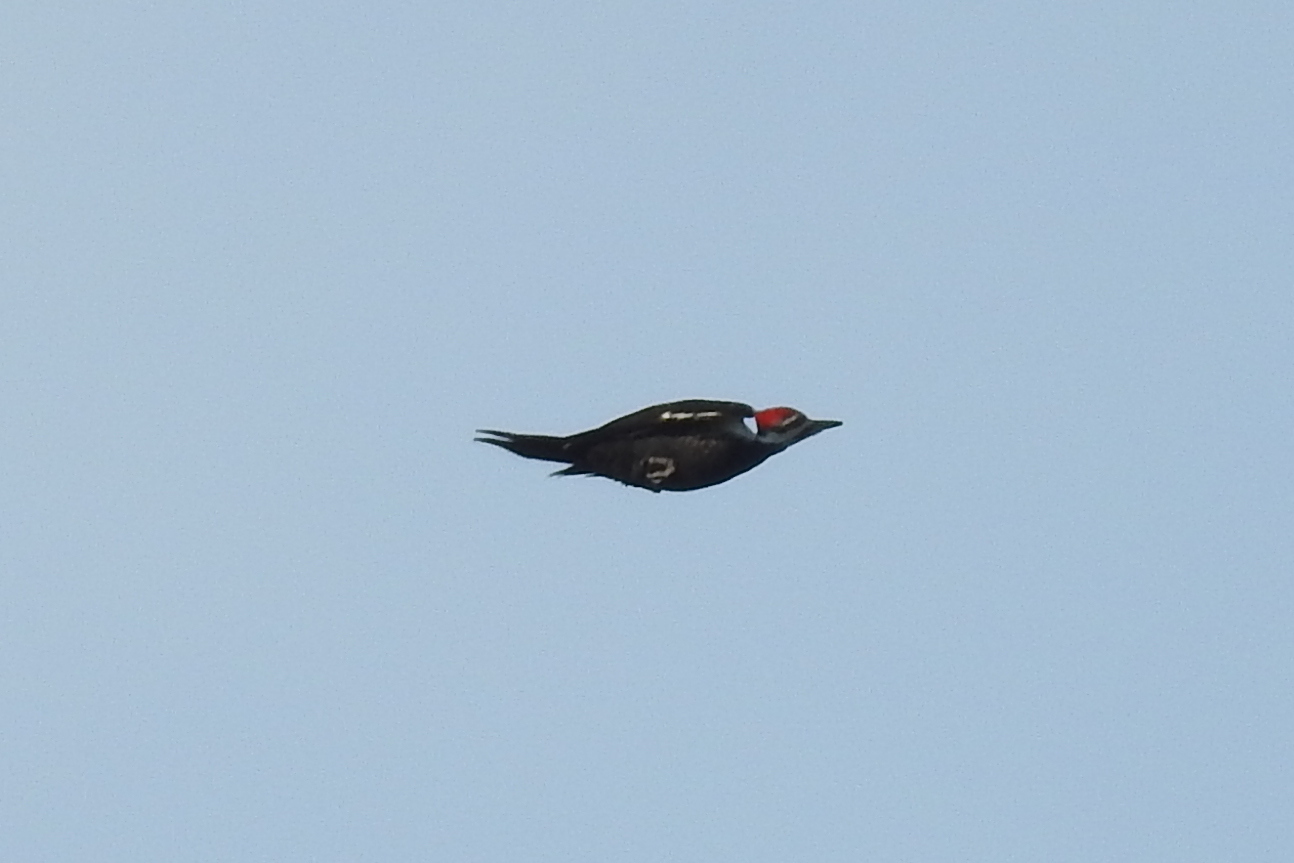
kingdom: Animalia
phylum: Chordata
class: Aves
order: Piciformes
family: Picidae
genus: Dryocopus
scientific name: Dryocopus pileatus
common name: Pileated woodpecker
